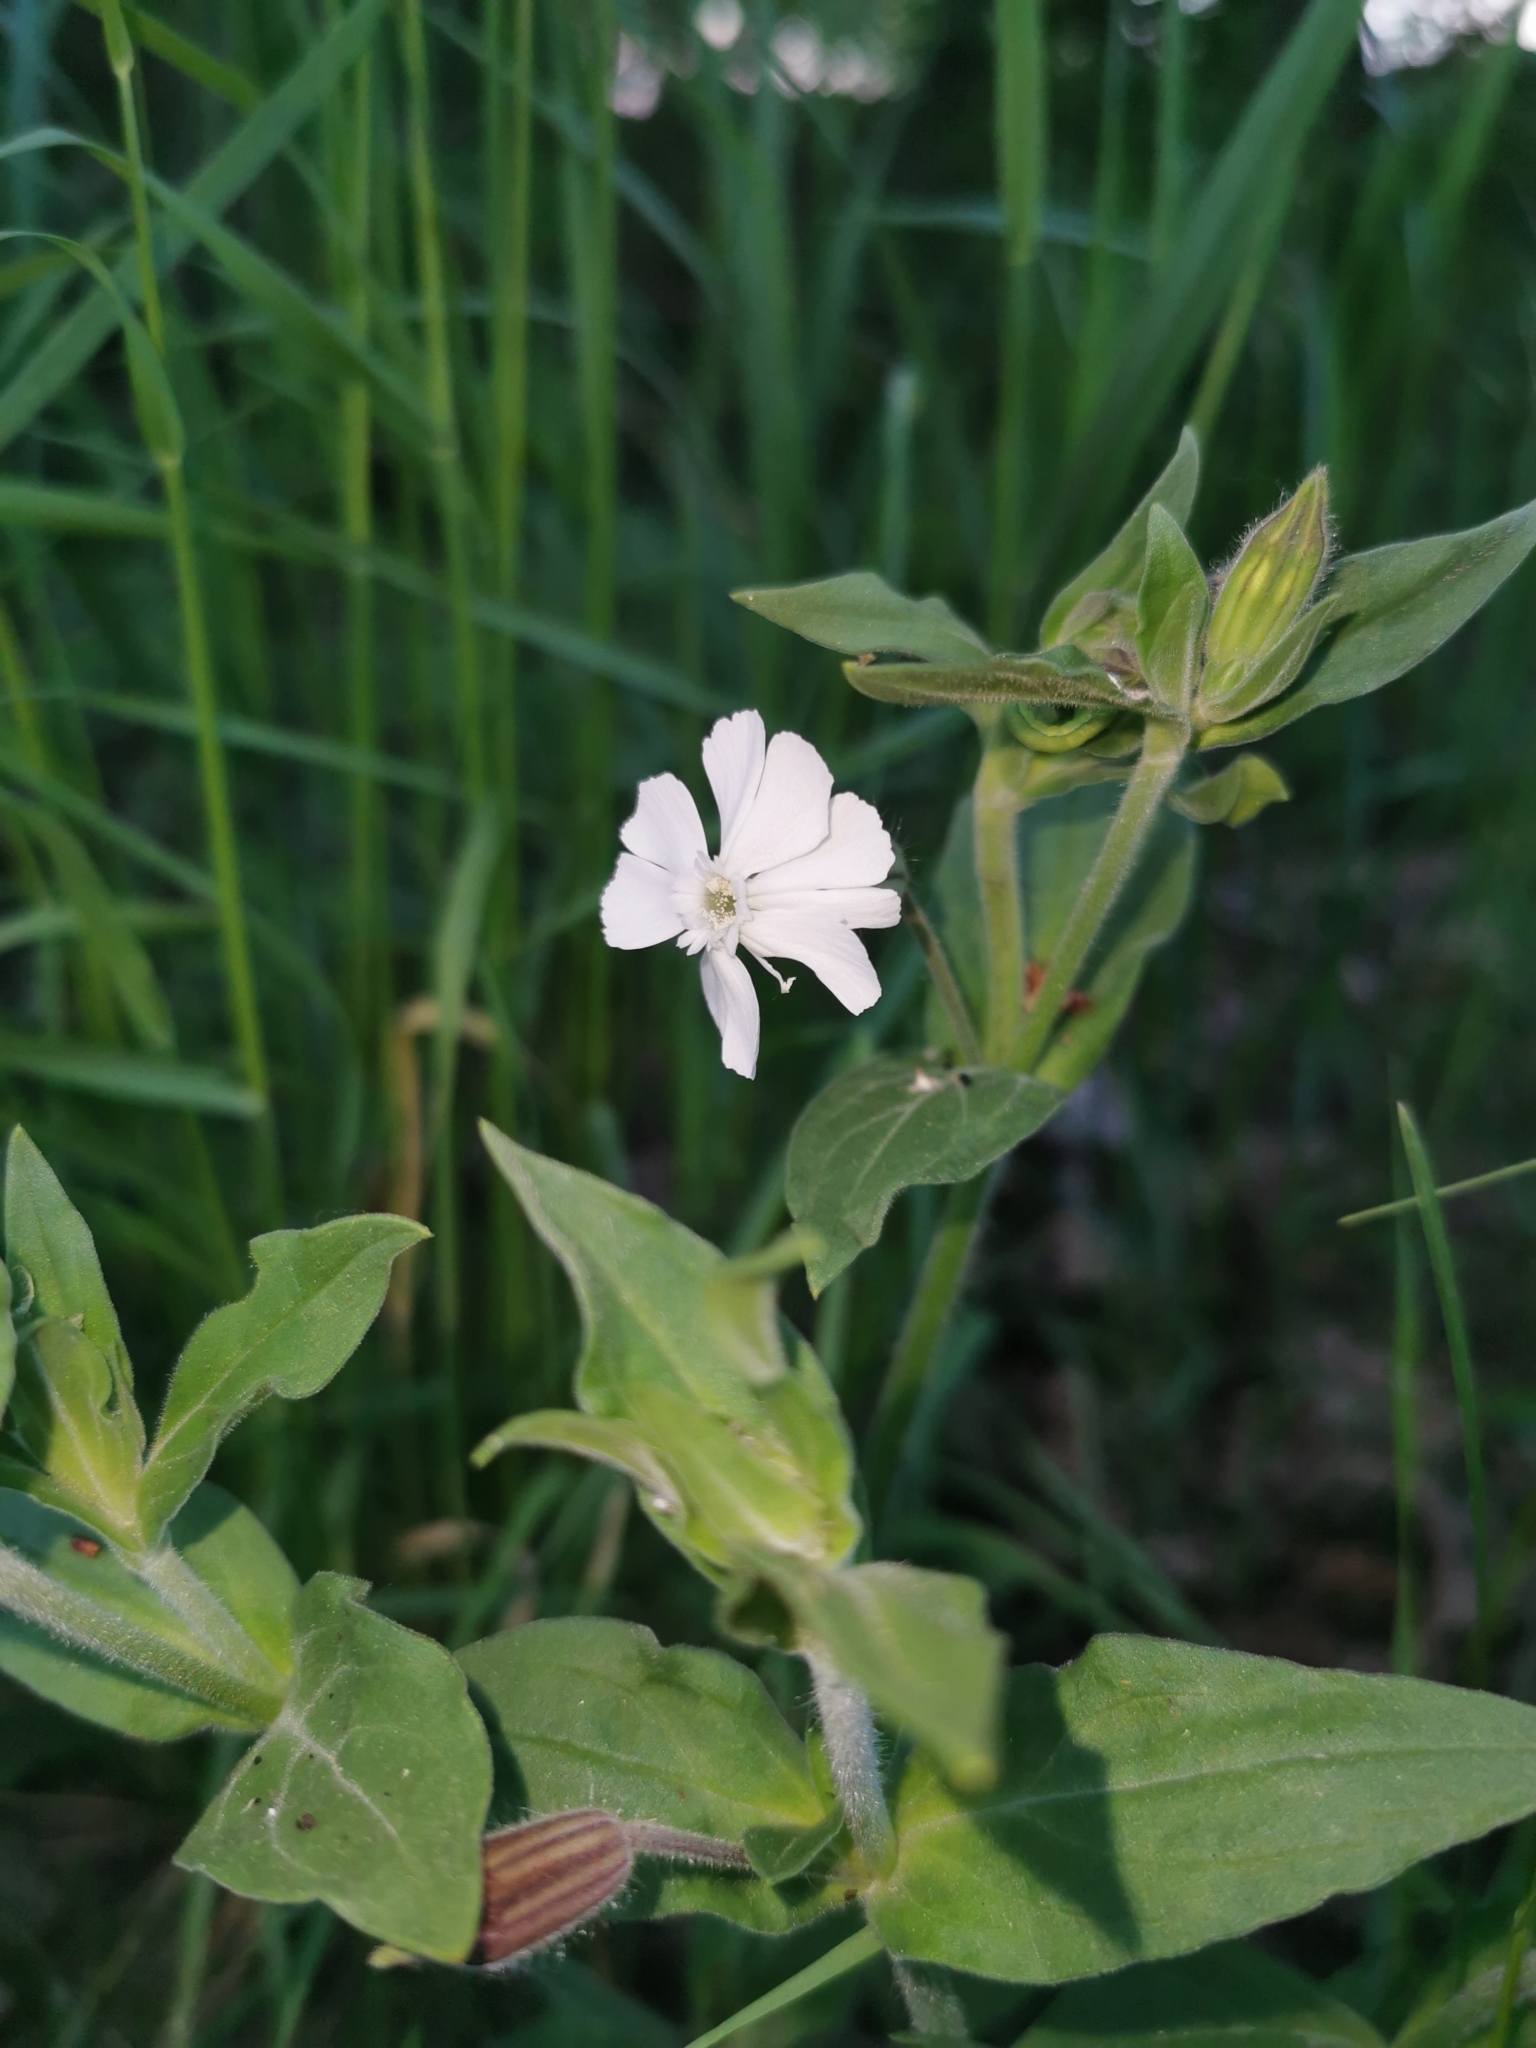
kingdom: Plantae
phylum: Tracheophyta
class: Magnoliopsida
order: Caryophyllales
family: Caryophyllaceae
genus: Silene
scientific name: Silene latifolia
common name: White campion
